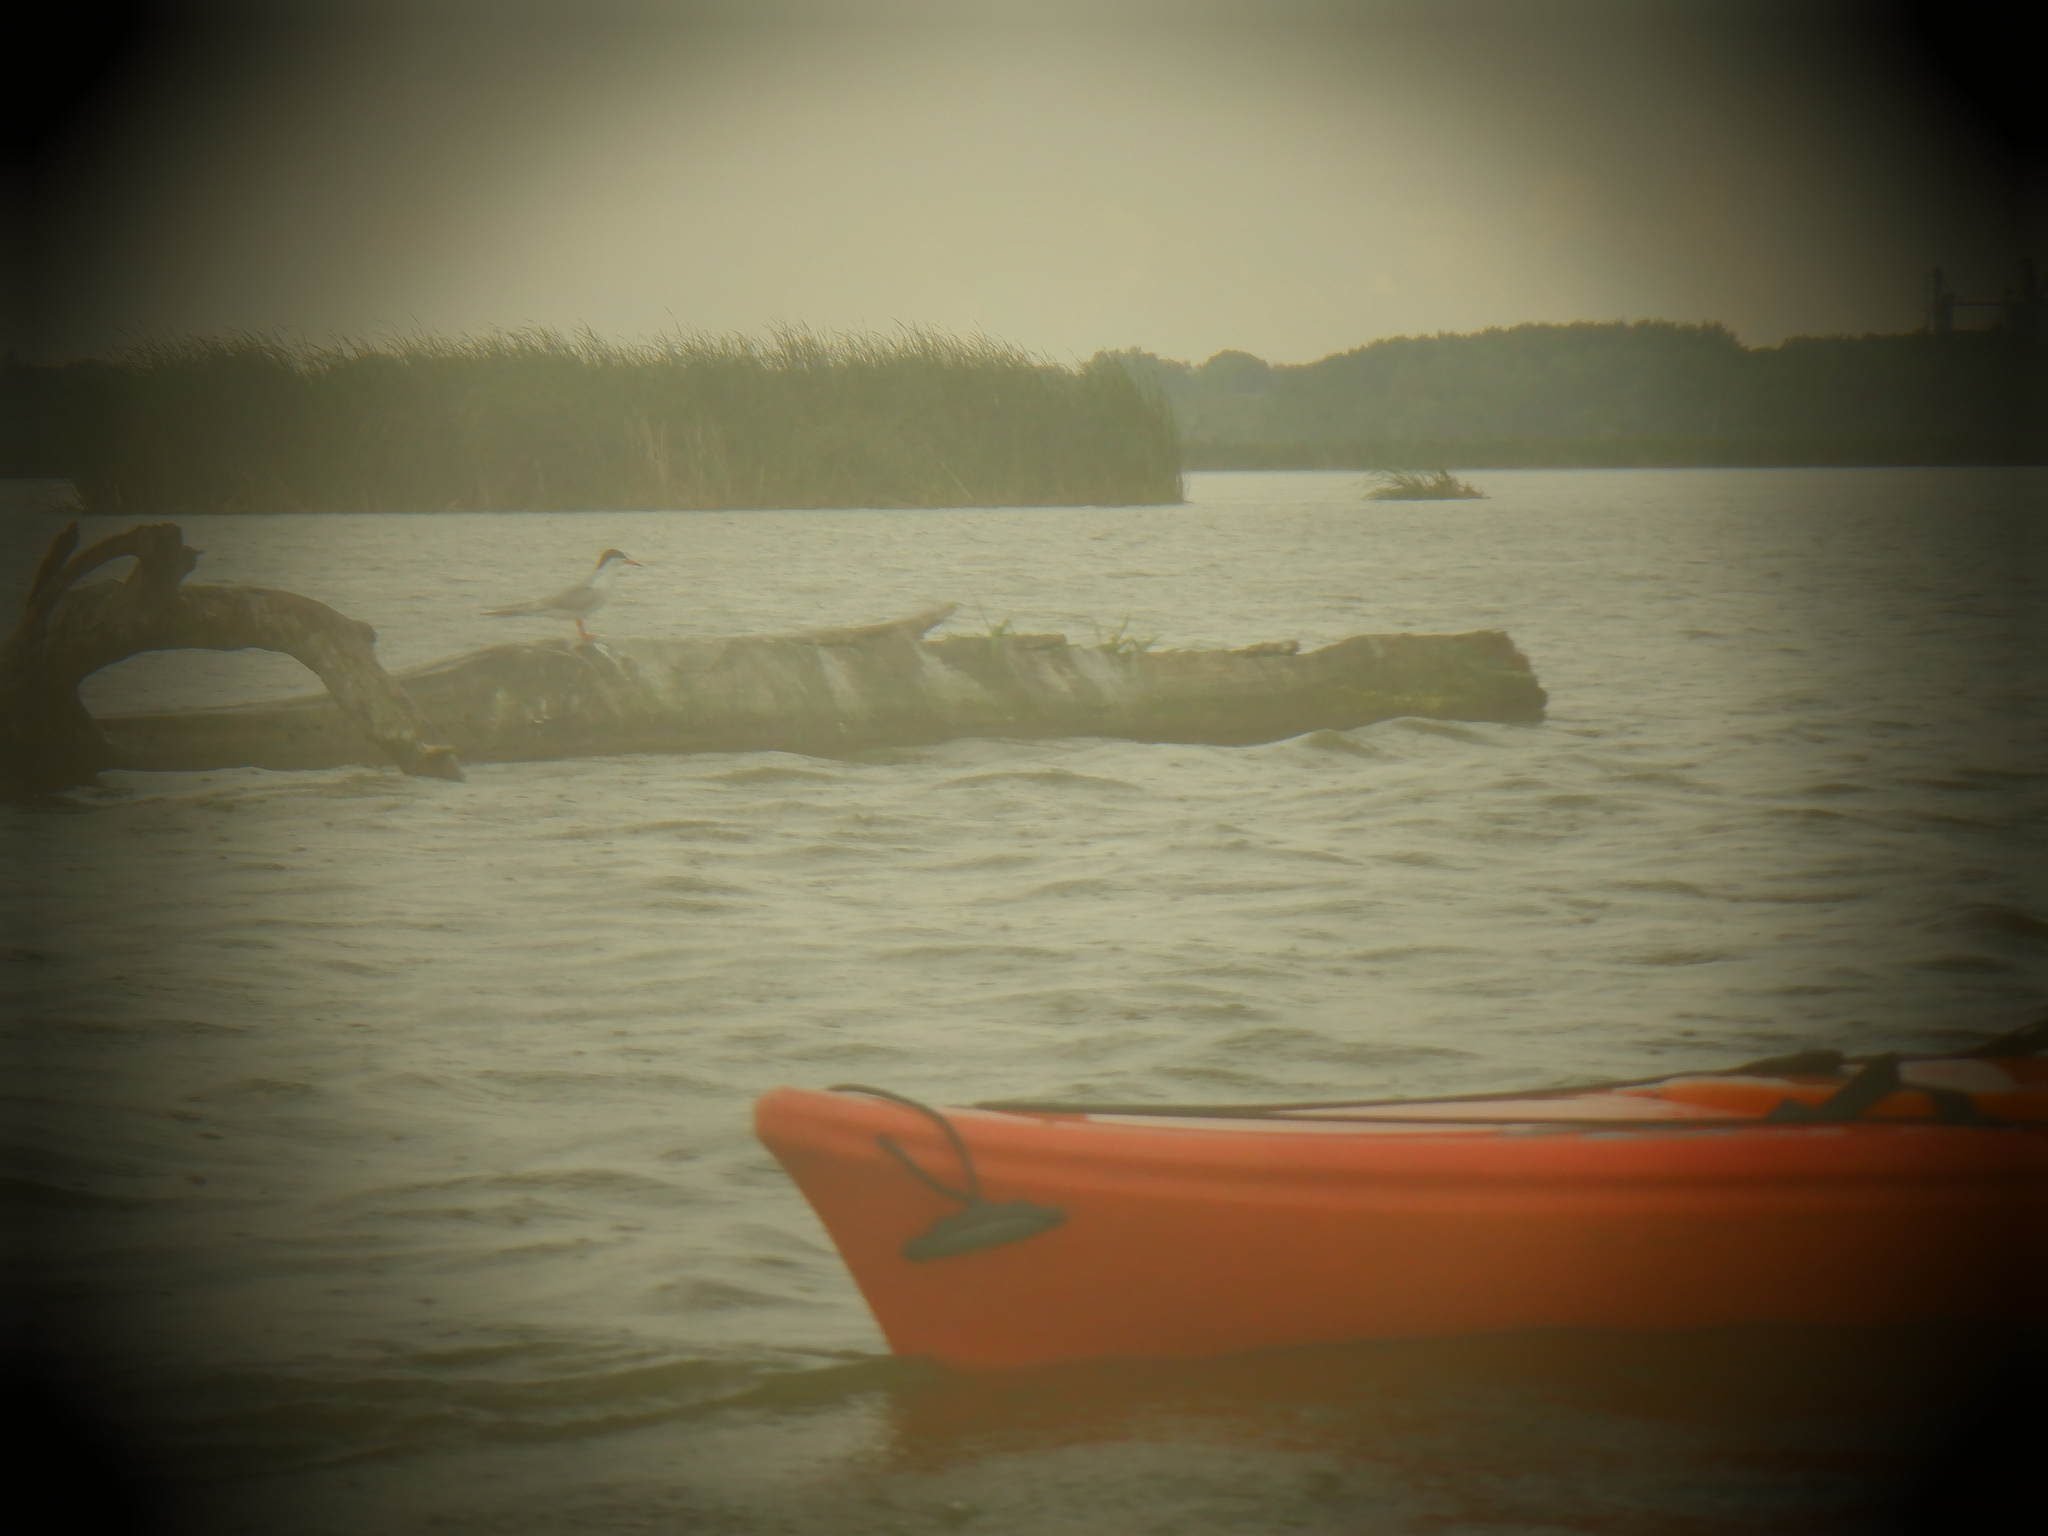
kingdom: Animalia
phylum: Chordata
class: Aves
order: Charadriiformes
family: Laridae
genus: Sterna
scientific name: Sterna forsteri
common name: Forster's tern
